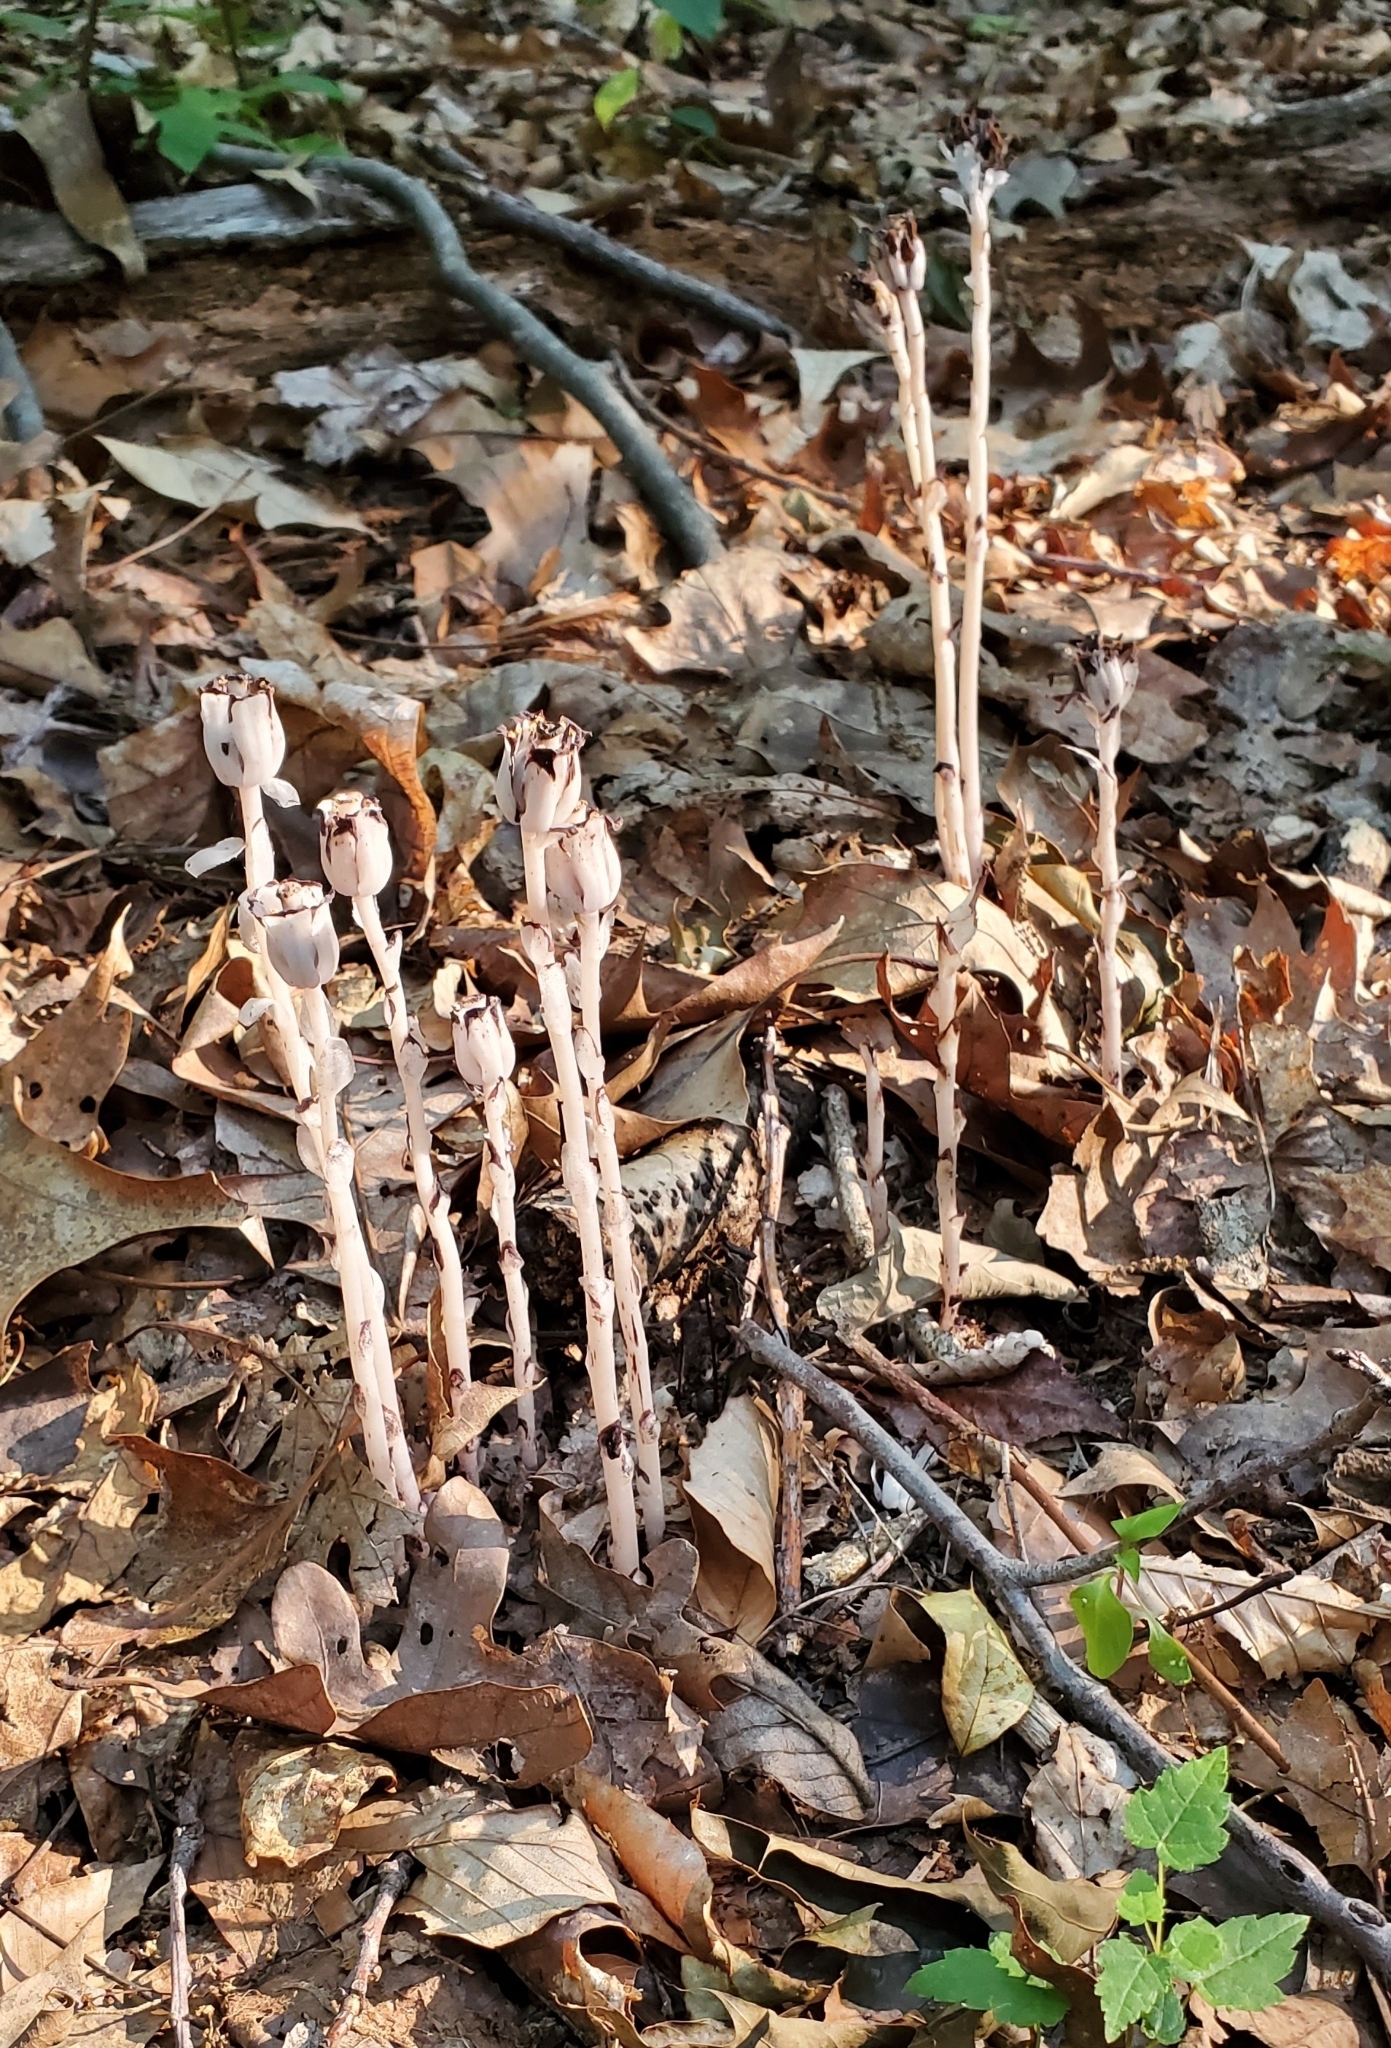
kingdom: Plantae
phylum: Tracheophyta
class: Magnoliopsida
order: Ericales
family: Ericaceae
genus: Monotropa
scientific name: Monotropa uniflora
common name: Convulsion root
